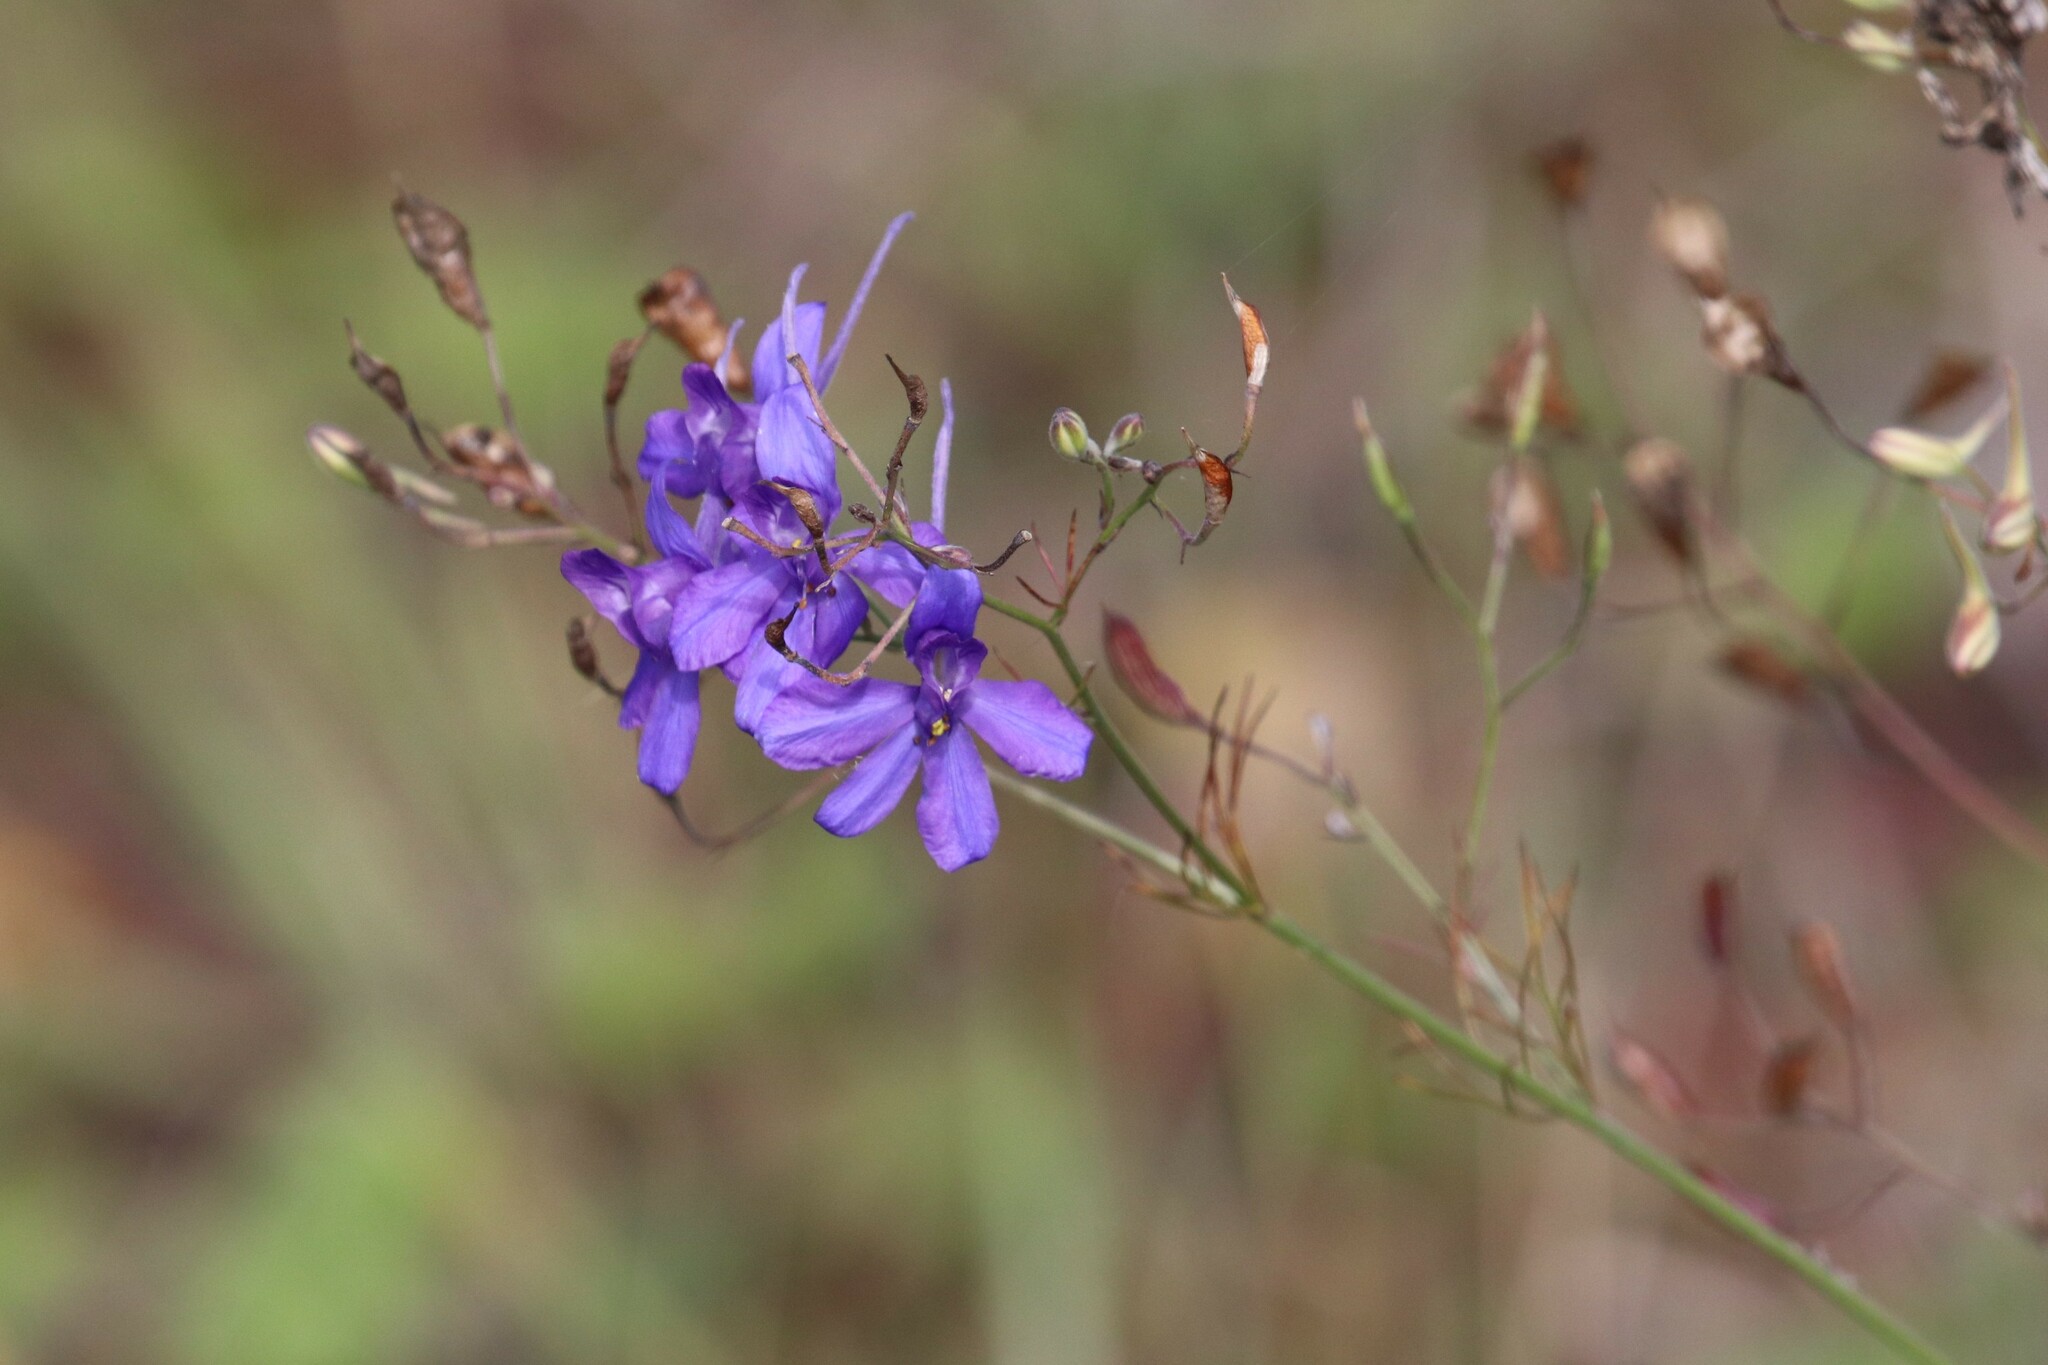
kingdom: Plantae
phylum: Tracheophyta
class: Magnoliopsida
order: Ranunculales
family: Ranunculaceae
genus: Delphinium
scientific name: Delphinium consolida
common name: Branching larkspur
